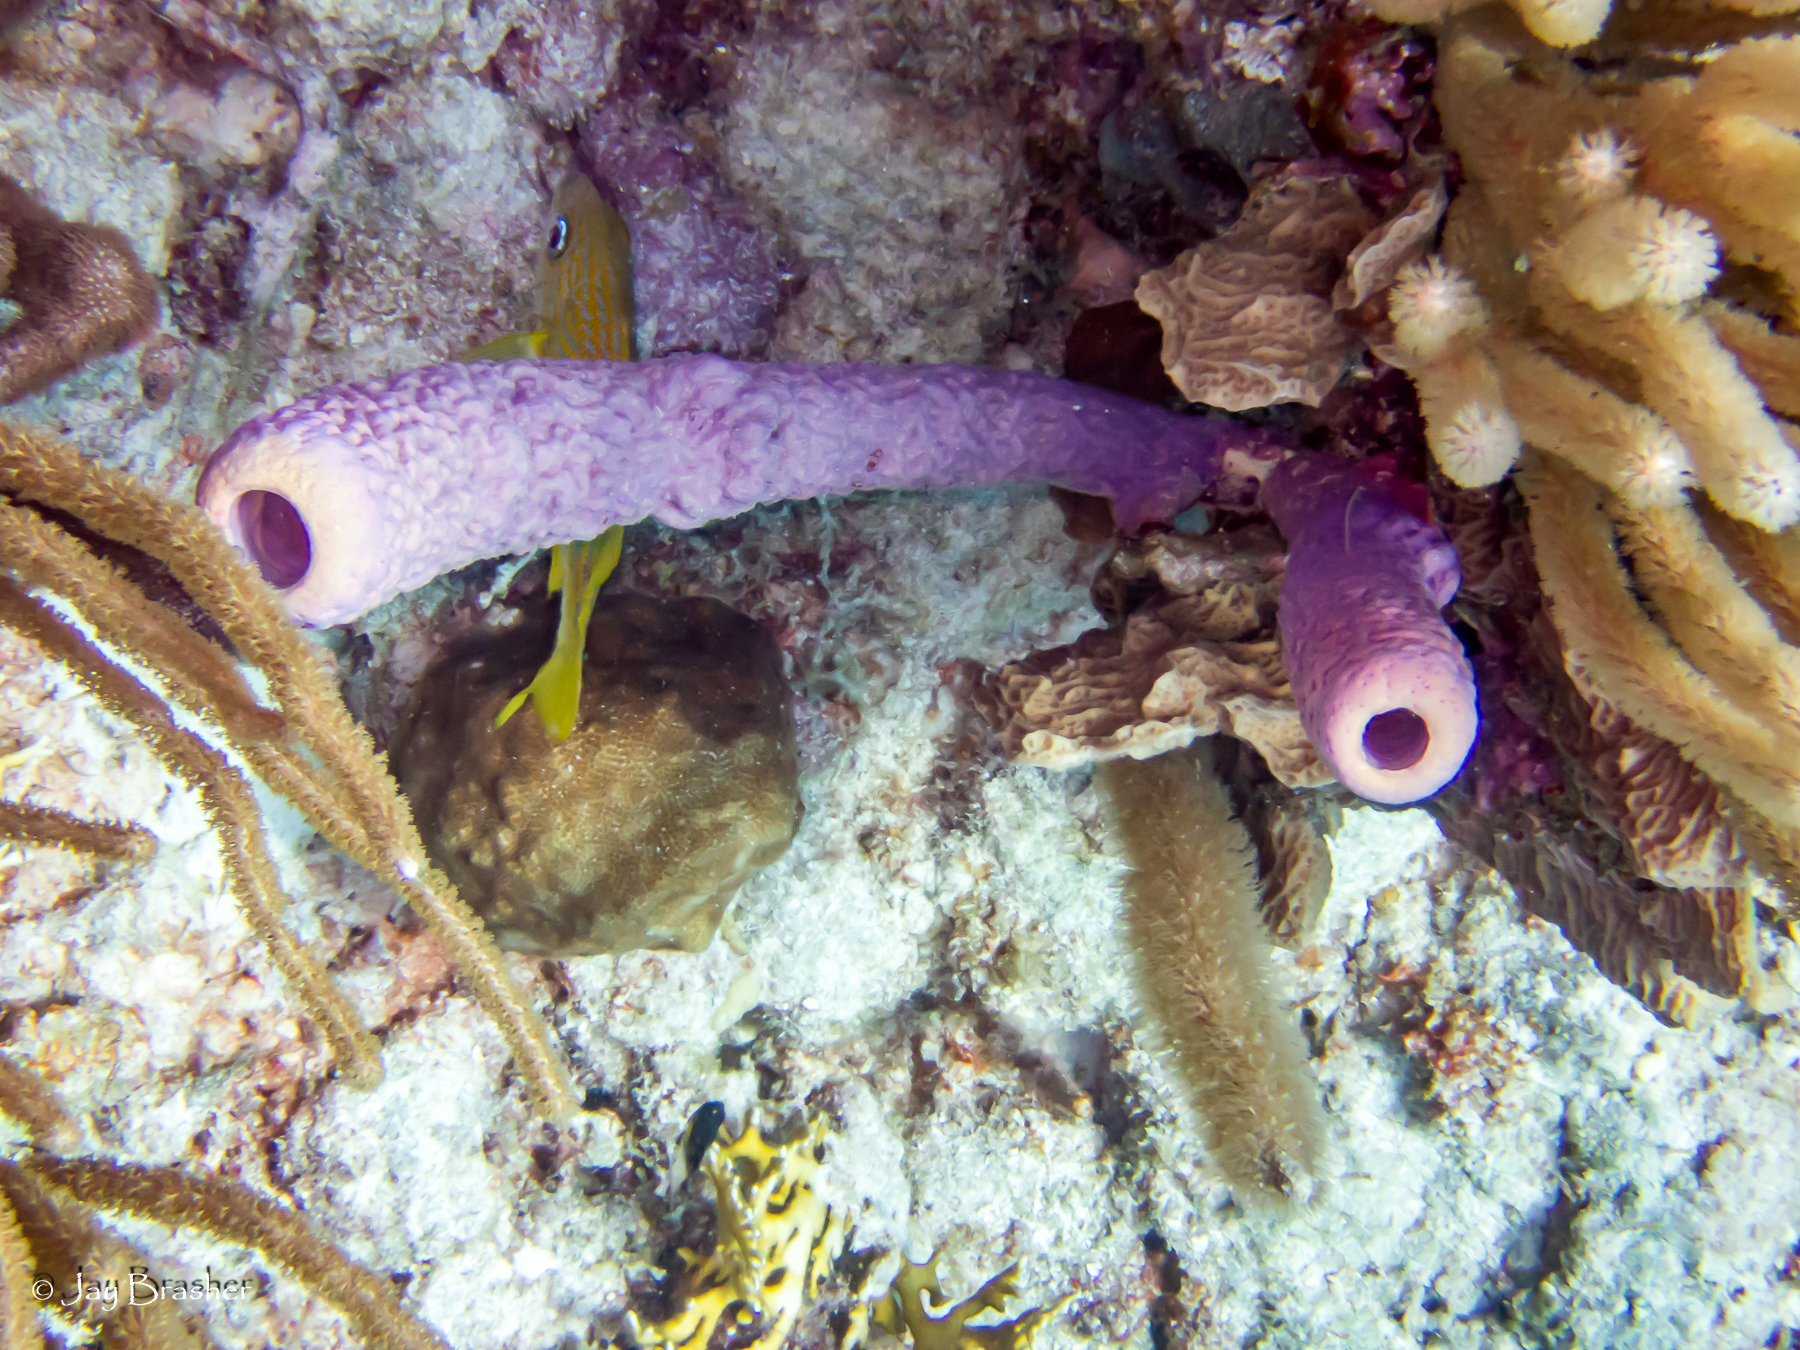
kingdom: Animalia
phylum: Porifera
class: Demospongiae
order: Verongiida
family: Aplysinidae
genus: Aplysina
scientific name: Aplysina archeri
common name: Stove-pipe sponge
